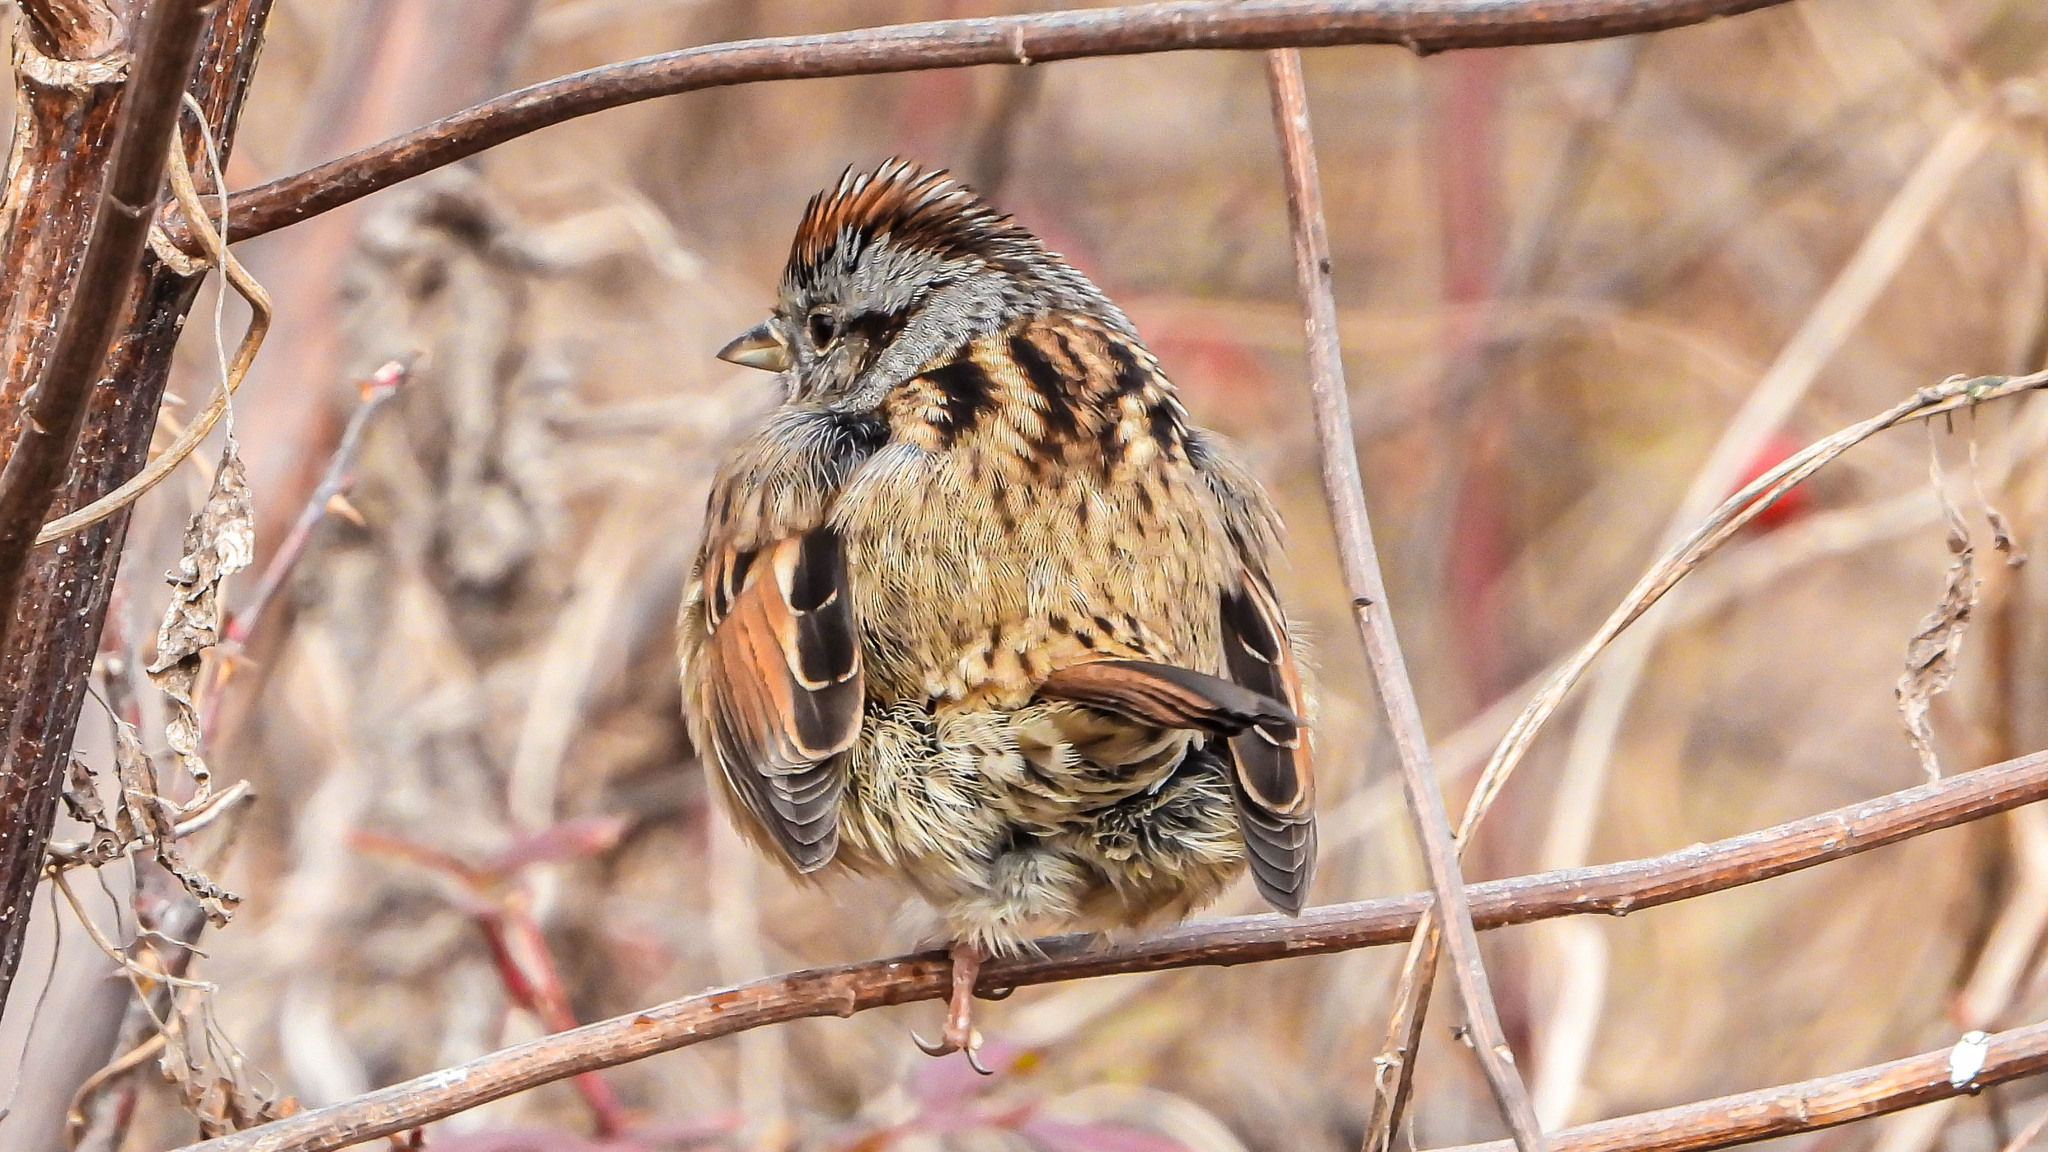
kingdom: Animalia
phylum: Chordata
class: Aves
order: Passeriformes
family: Passerellidae
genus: Melospiza
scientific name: Melospiza georgiana
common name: Swamp sparrow
